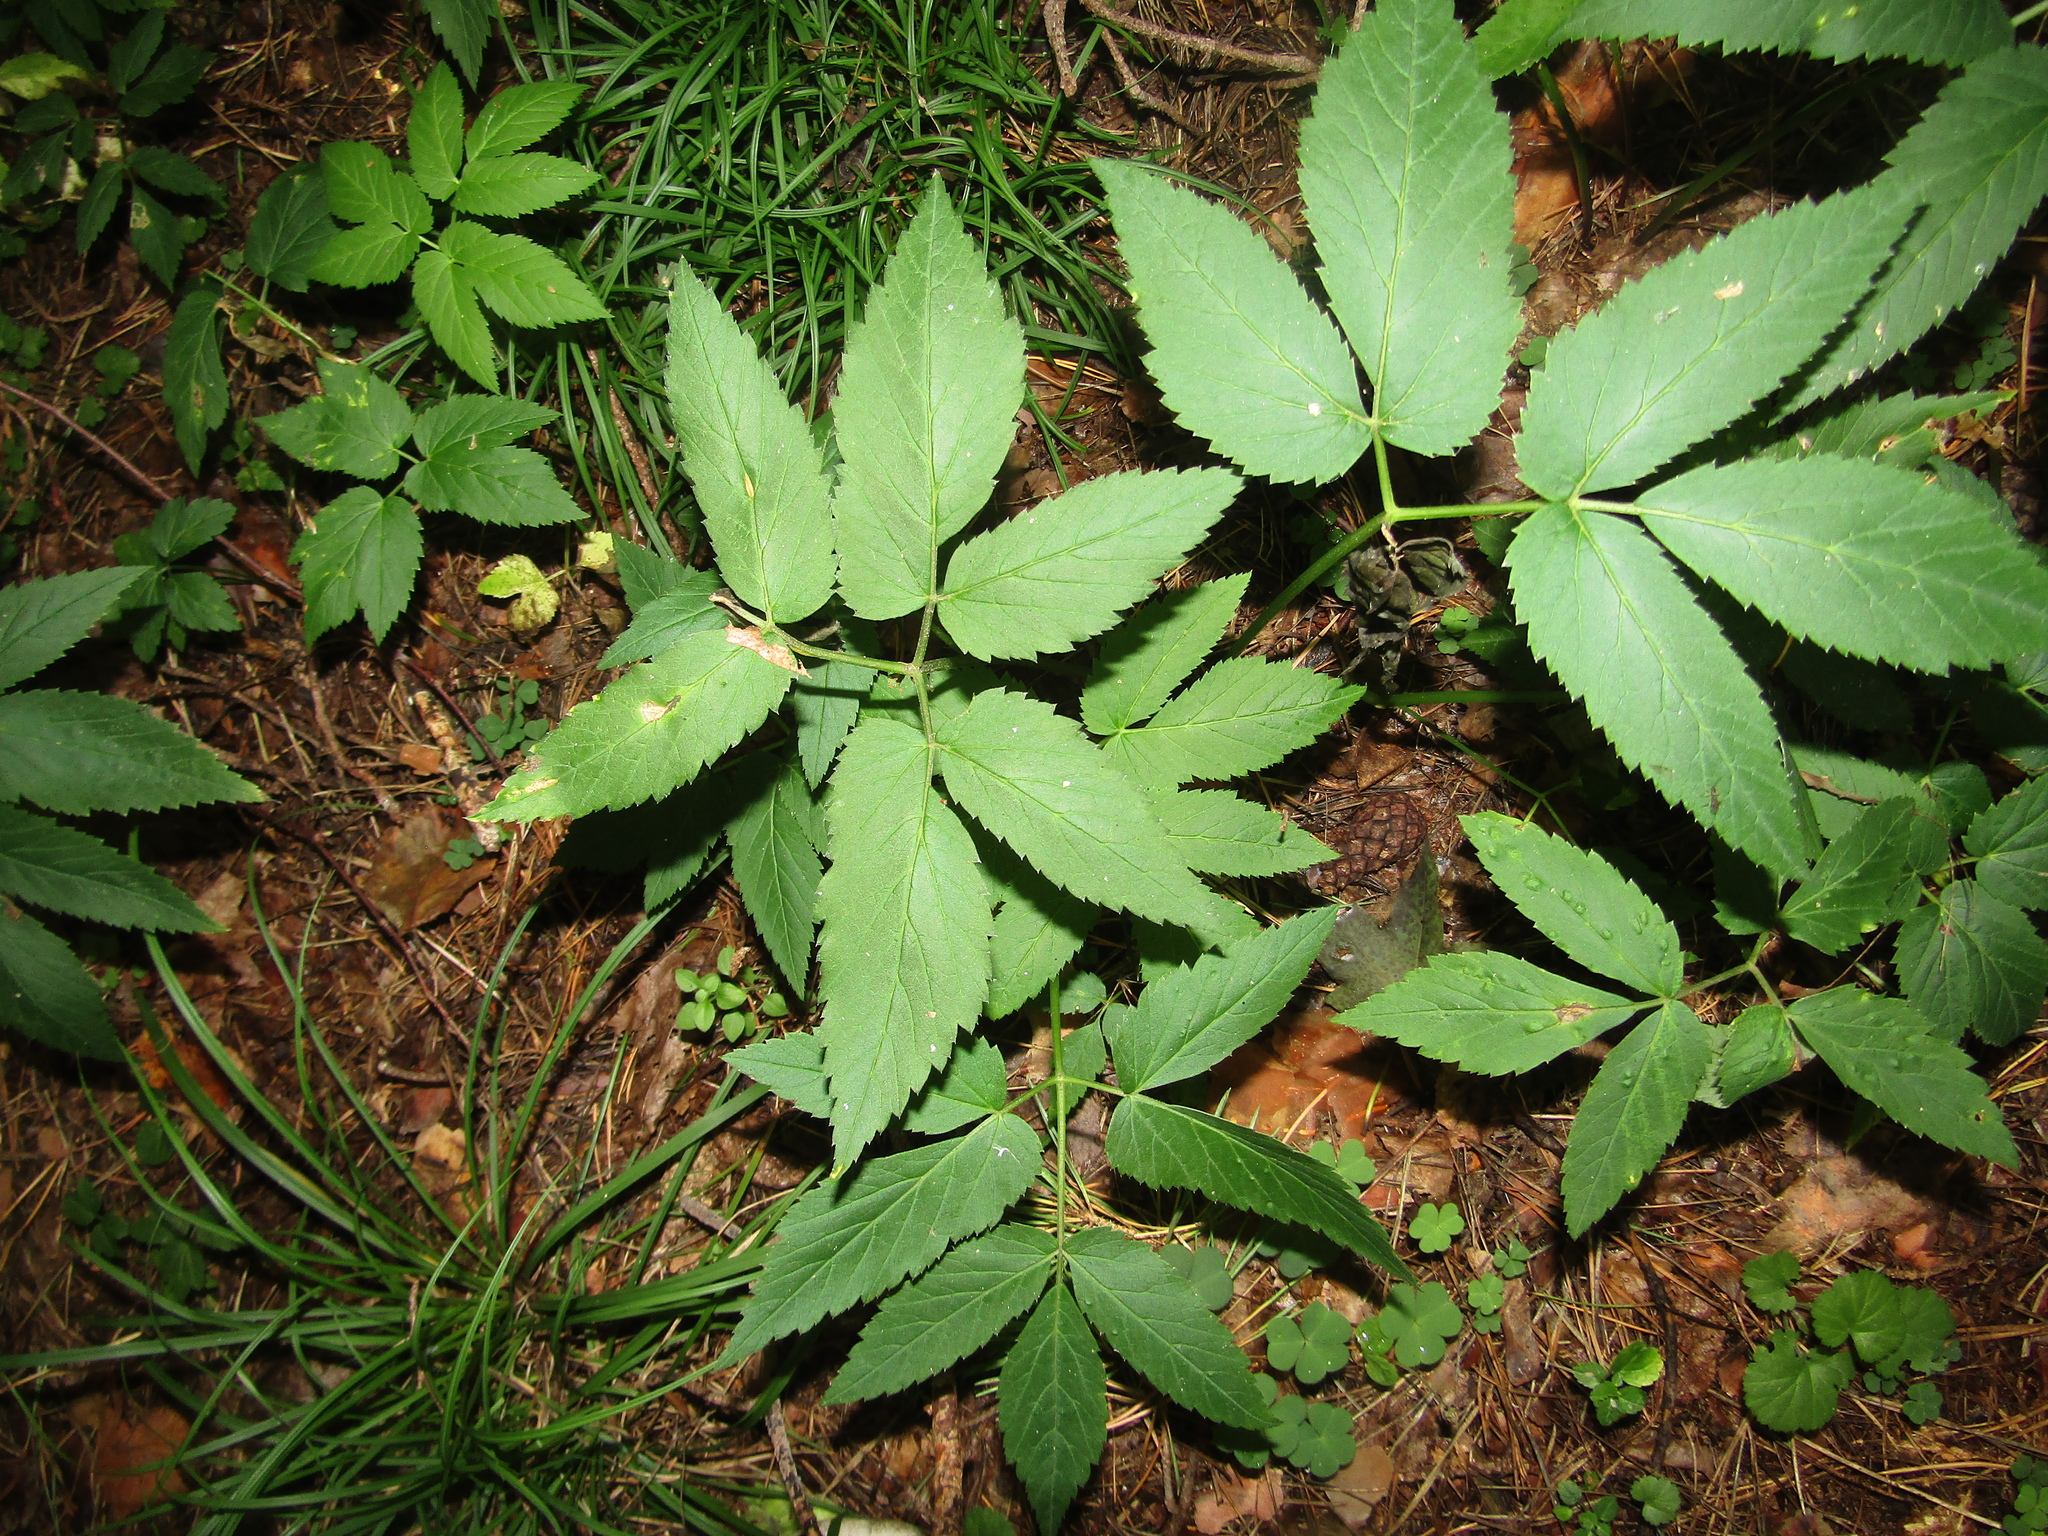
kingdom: Plantae
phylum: Tracheophyta
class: Magnoliopsida
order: Apiales
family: Apiaceae
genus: Aegopodium
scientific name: Aegopodium podagraria
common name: Ground-elder
